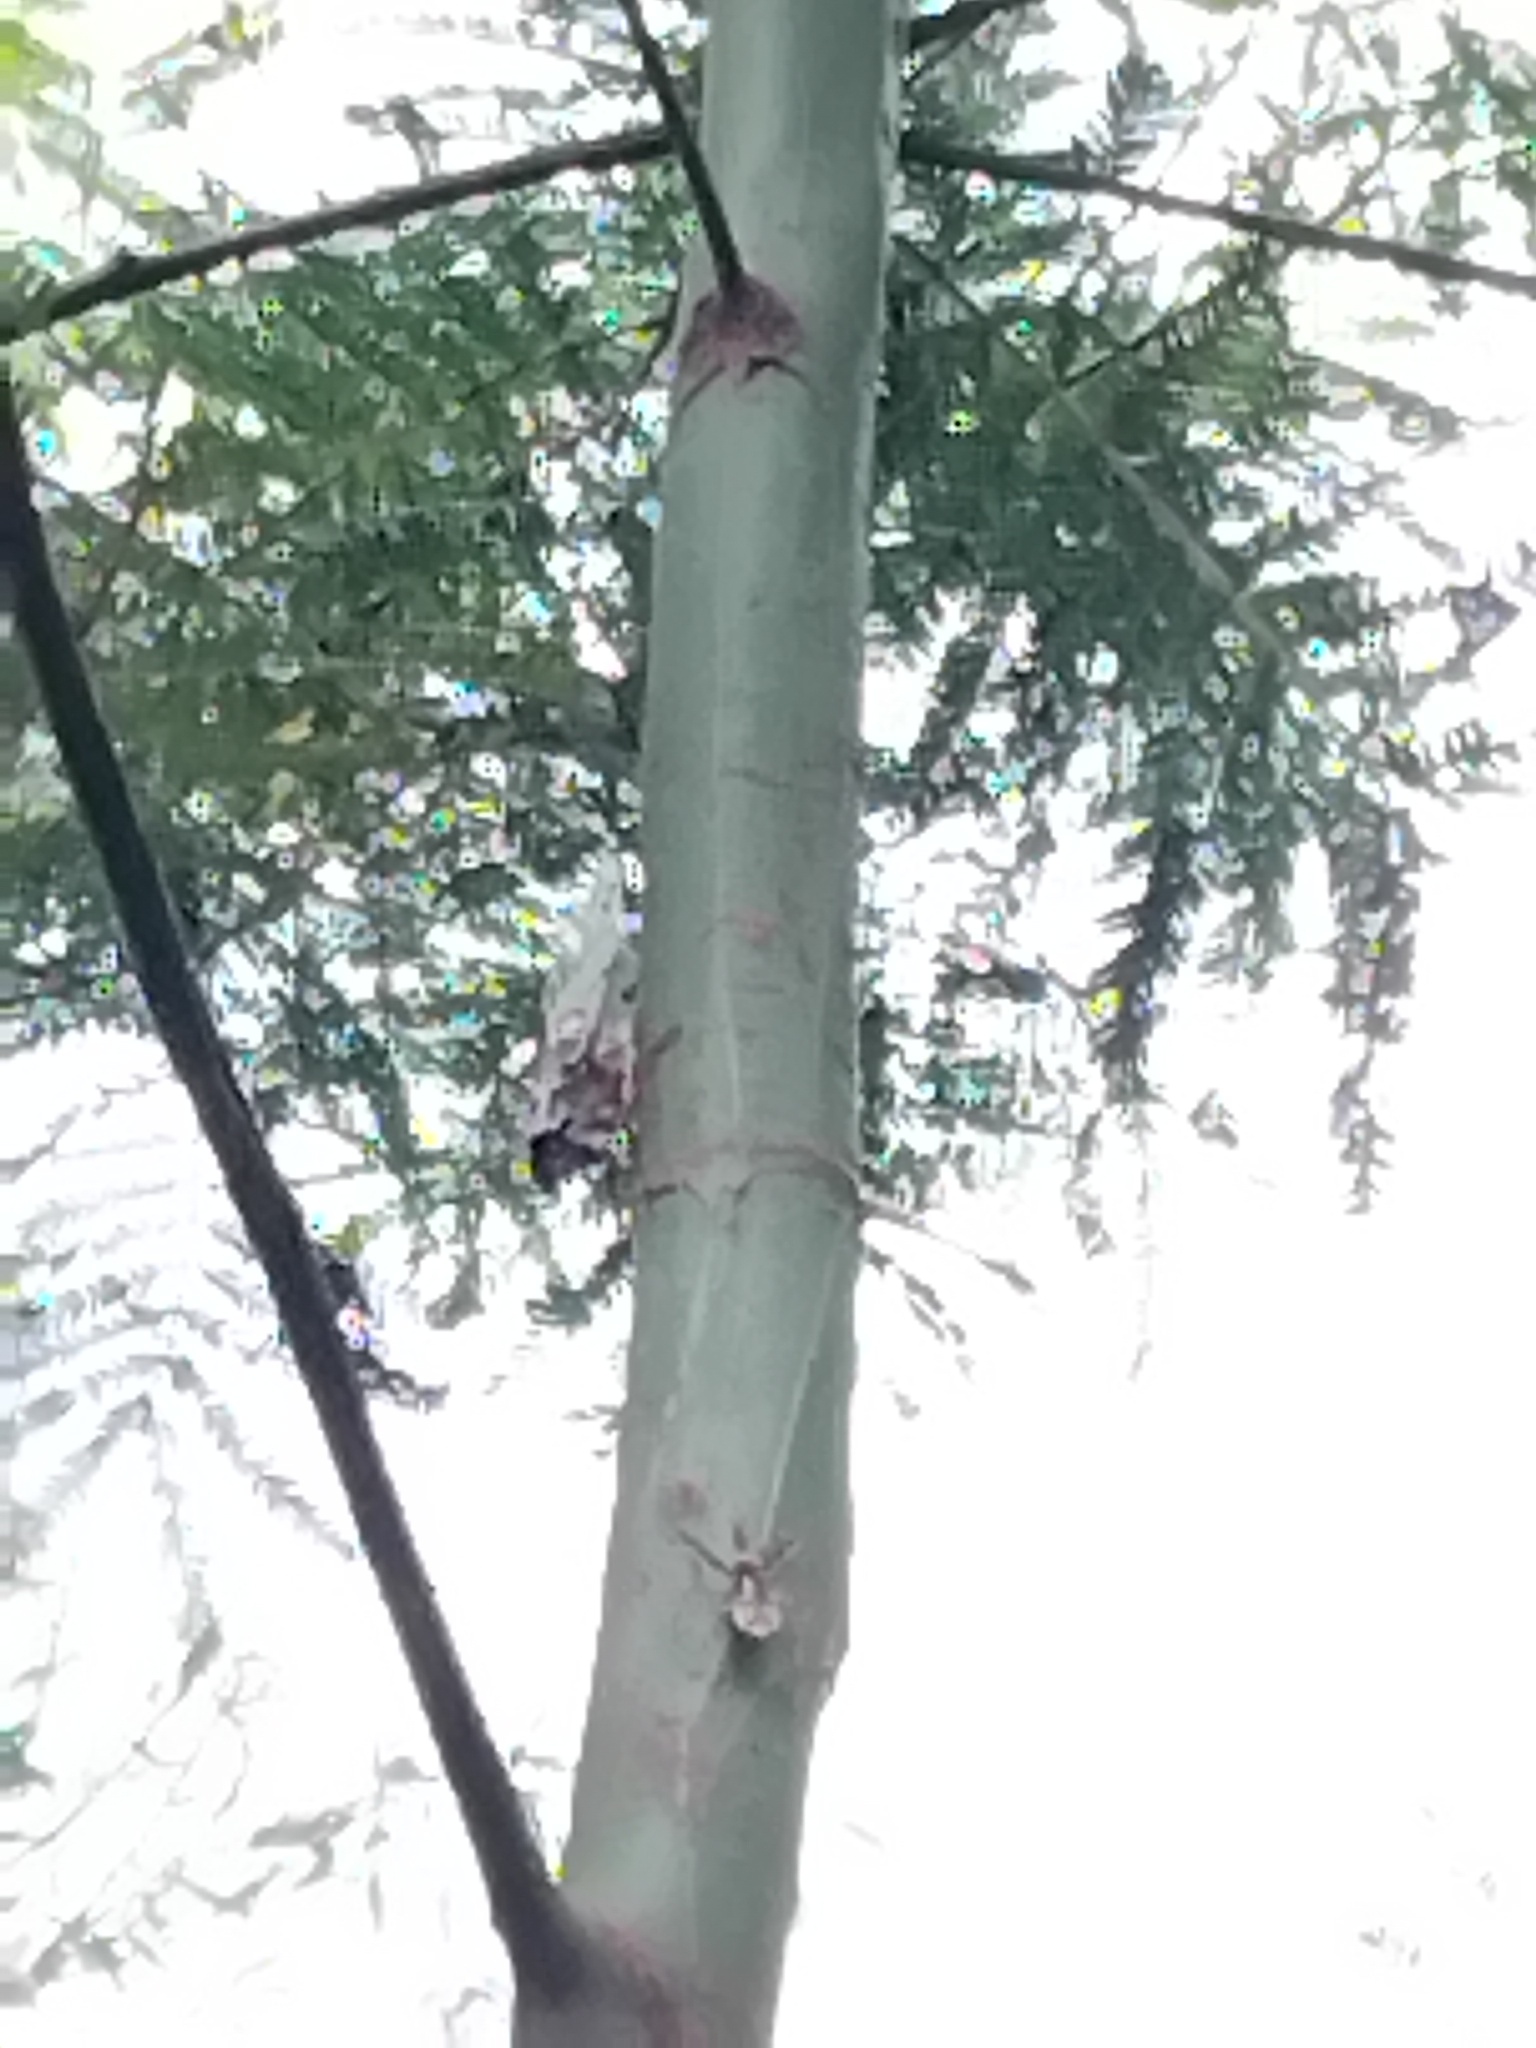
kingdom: Animalia
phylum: Arthropoda
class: Insecta
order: Hemiptera
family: Reduviidae
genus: Pristhesancus
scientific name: Pristhesancus plagipennis
